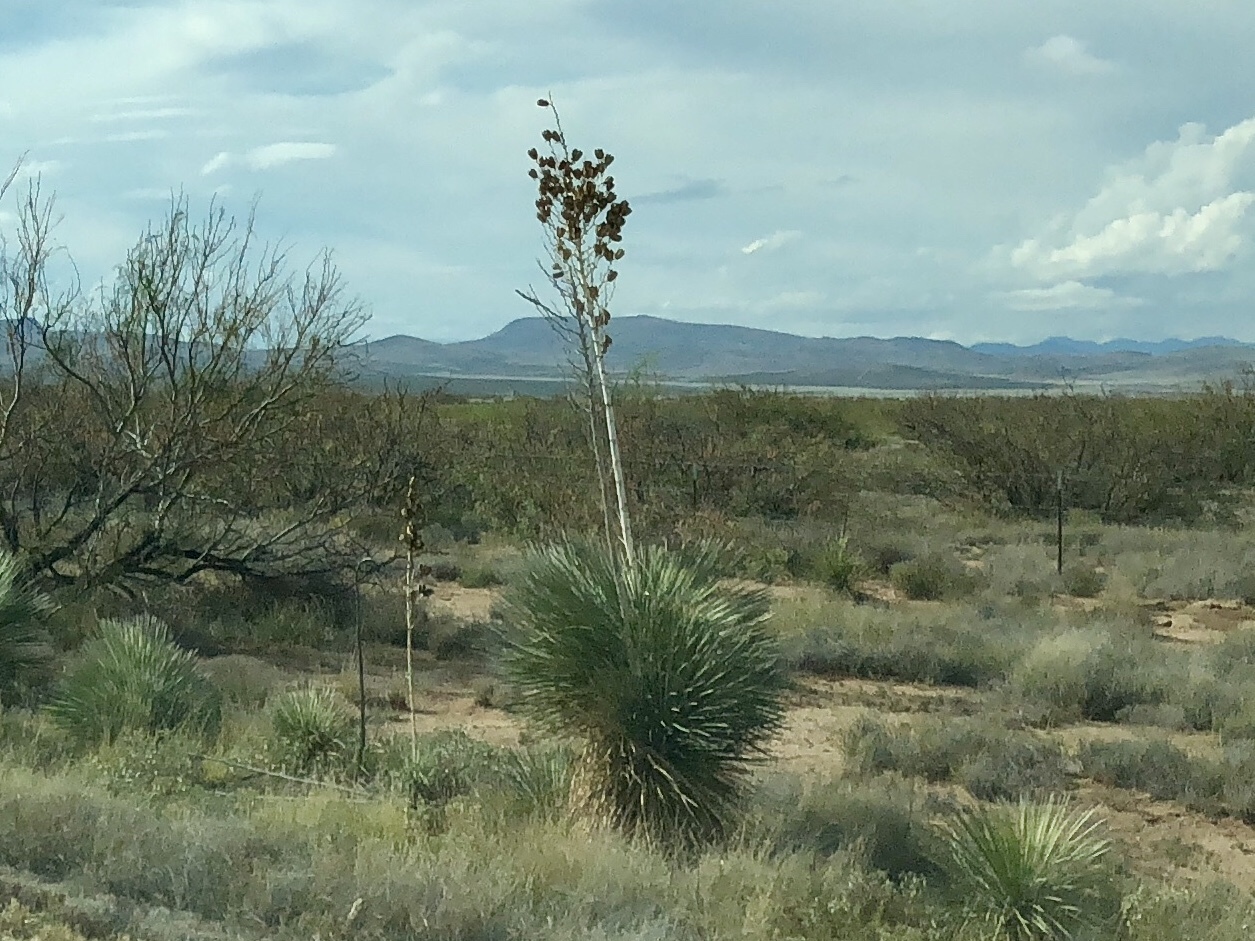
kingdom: Plantae
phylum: Tracheophyta
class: Liliopsida
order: Asparagales
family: Asparagaceae
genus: Yucca
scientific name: Yucca elata
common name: Palmella
